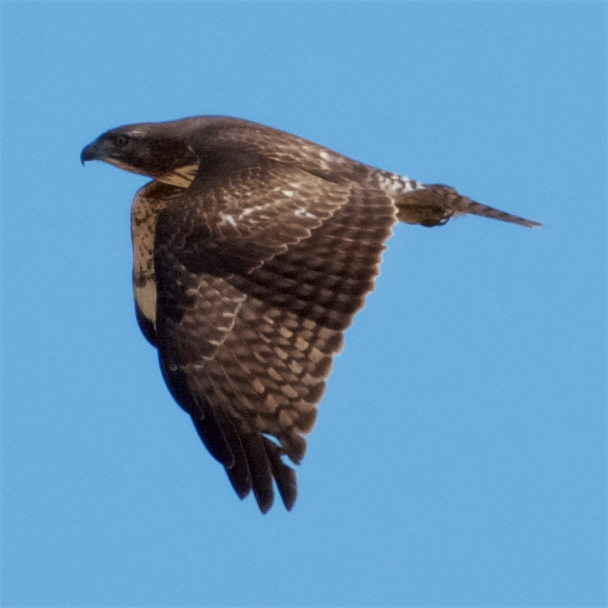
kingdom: Animalia
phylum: Chordata
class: Aves
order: Accipitriformes
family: Accipitridae
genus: Buteo
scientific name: Buteo jamaicensis
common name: Red-tailed hawk
